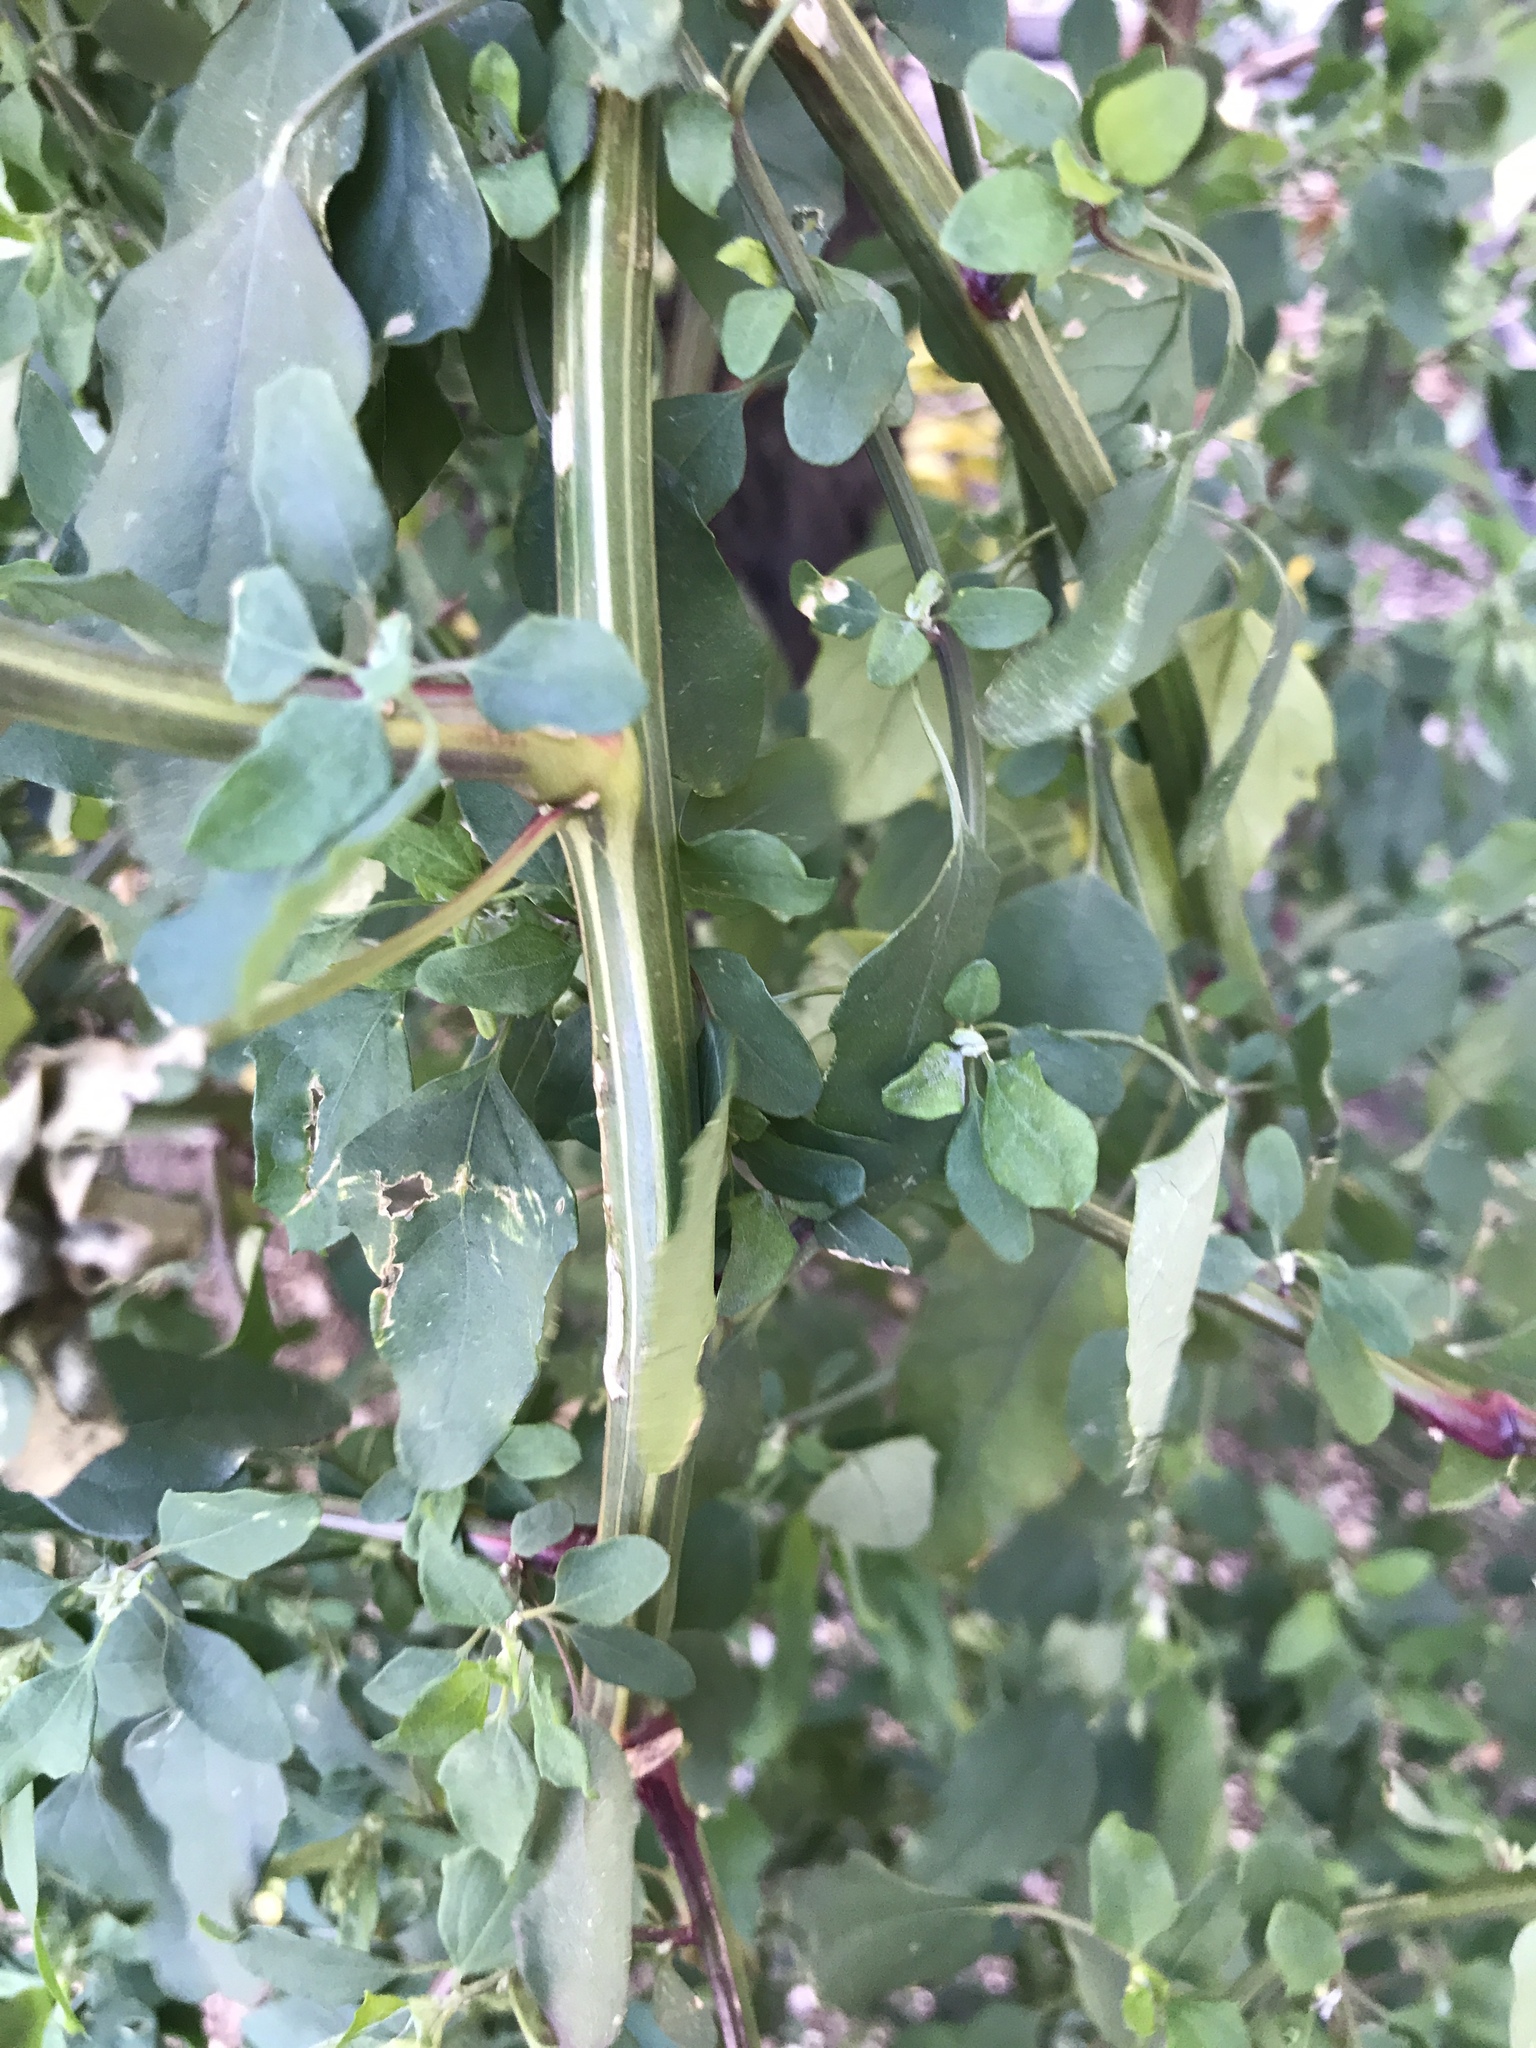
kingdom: Plantae
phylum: Tracheophyta
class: Magnoliopsida
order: Caryophyllales
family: Amaranthaceae
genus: Chenopodium
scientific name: Chenopodium album
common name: Fat-hen
